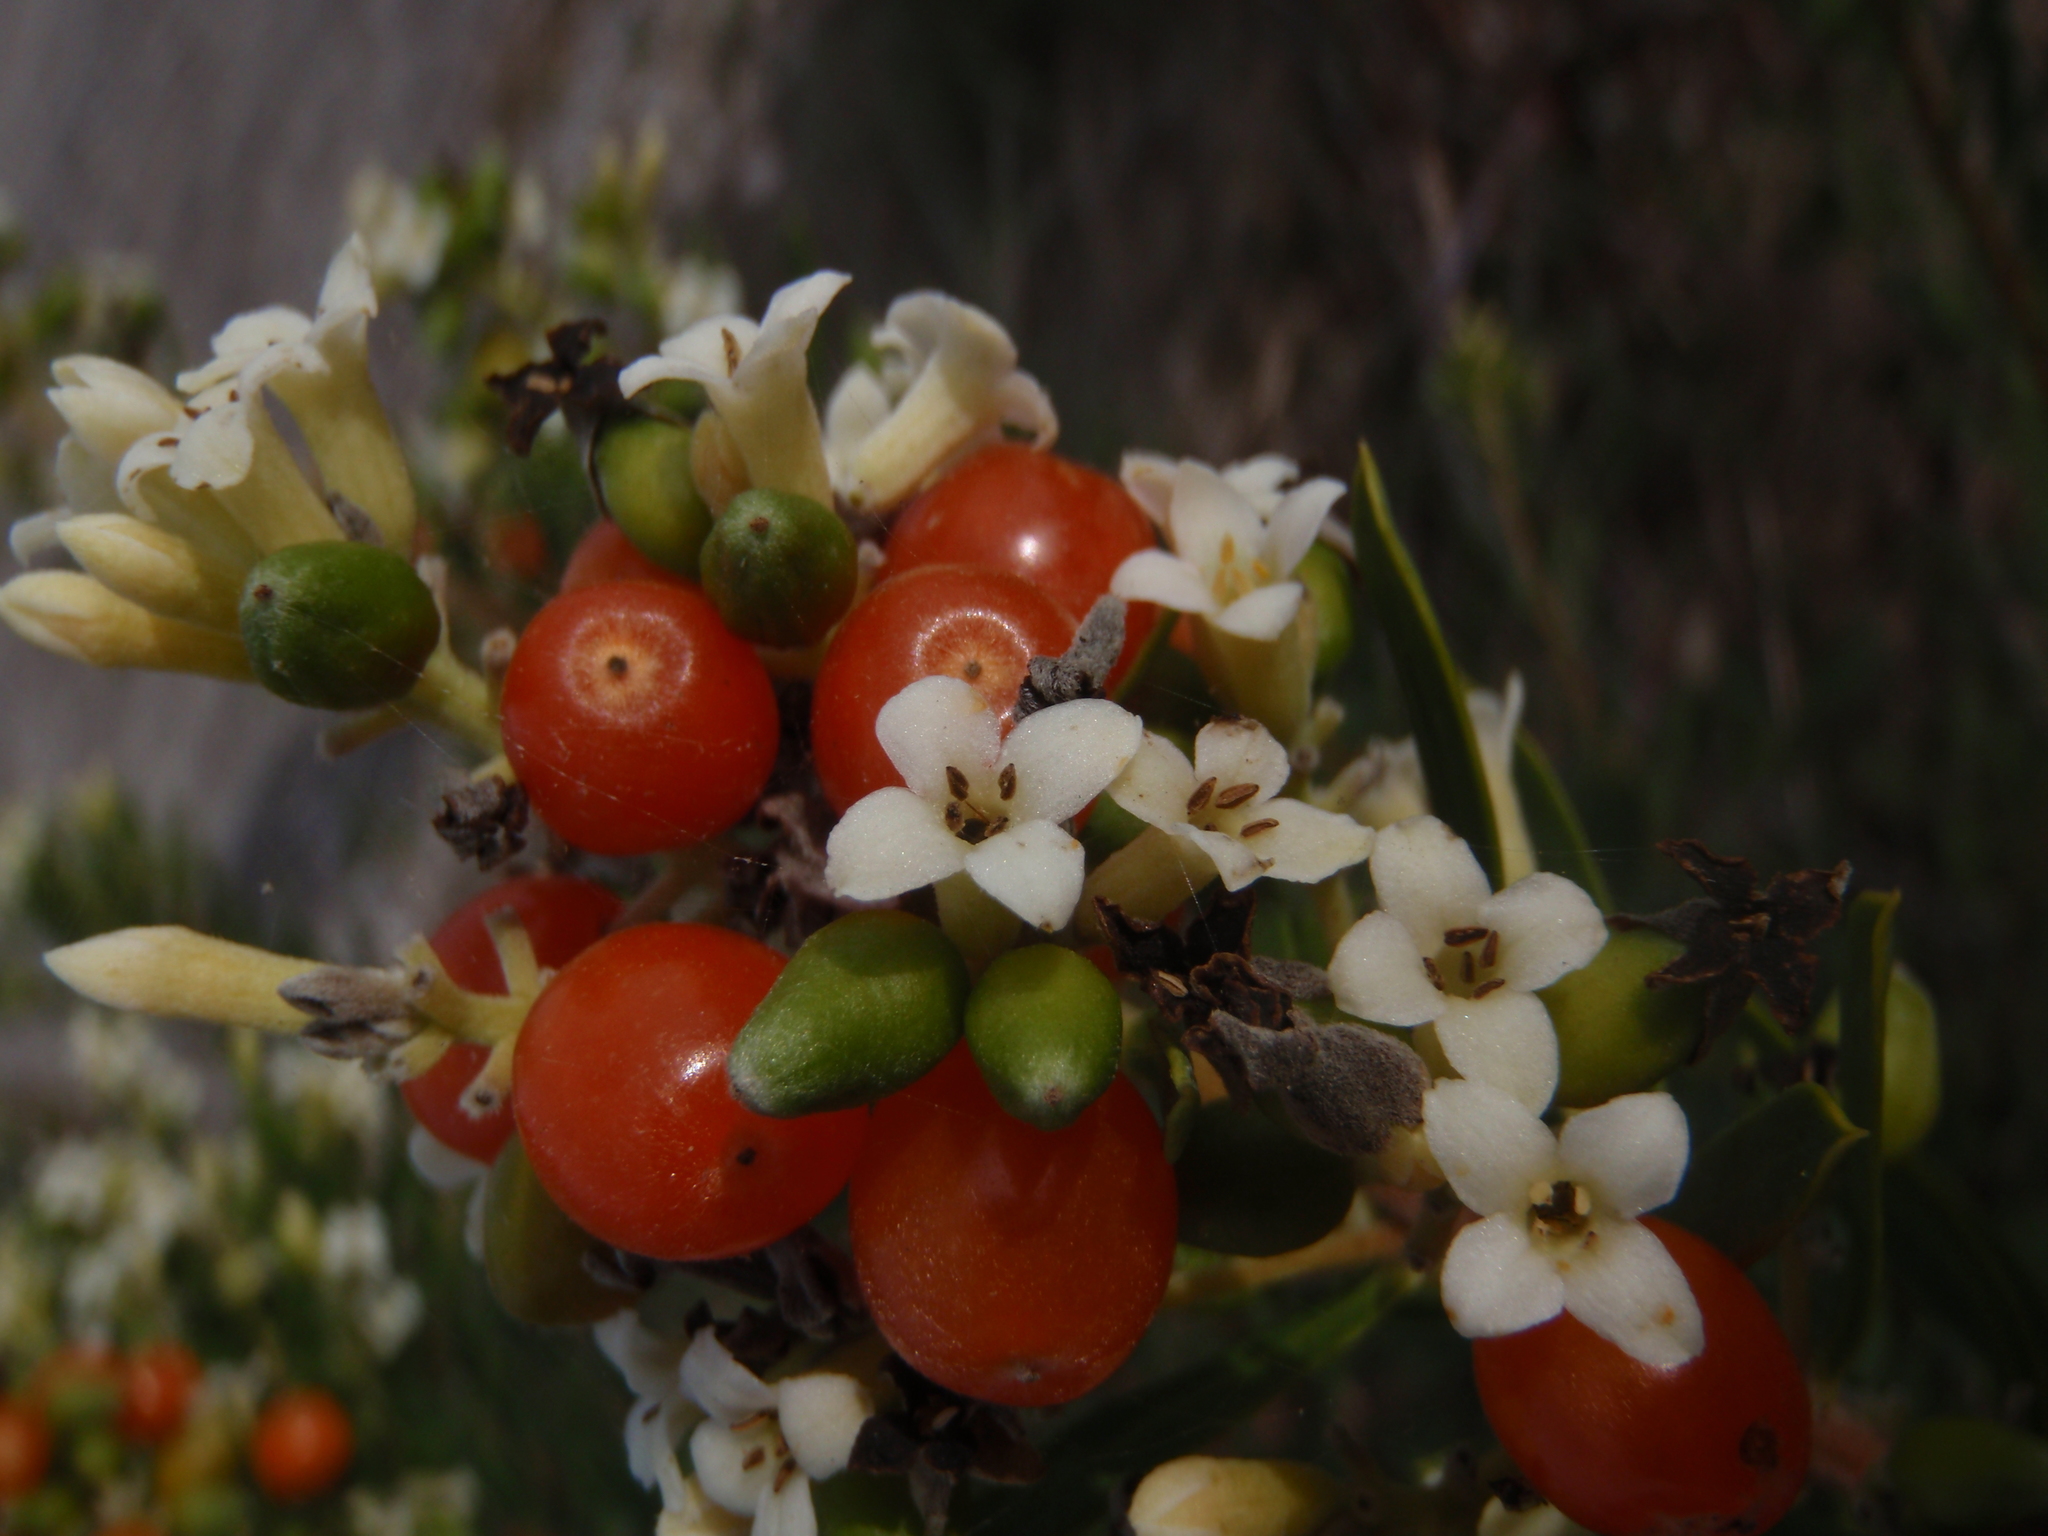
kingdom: Plantae
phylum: Tracheophyta
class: Magnoliopsida
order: Malvales
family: Thymelaeaceae
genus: Daphne
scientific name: Daphne gnidium
